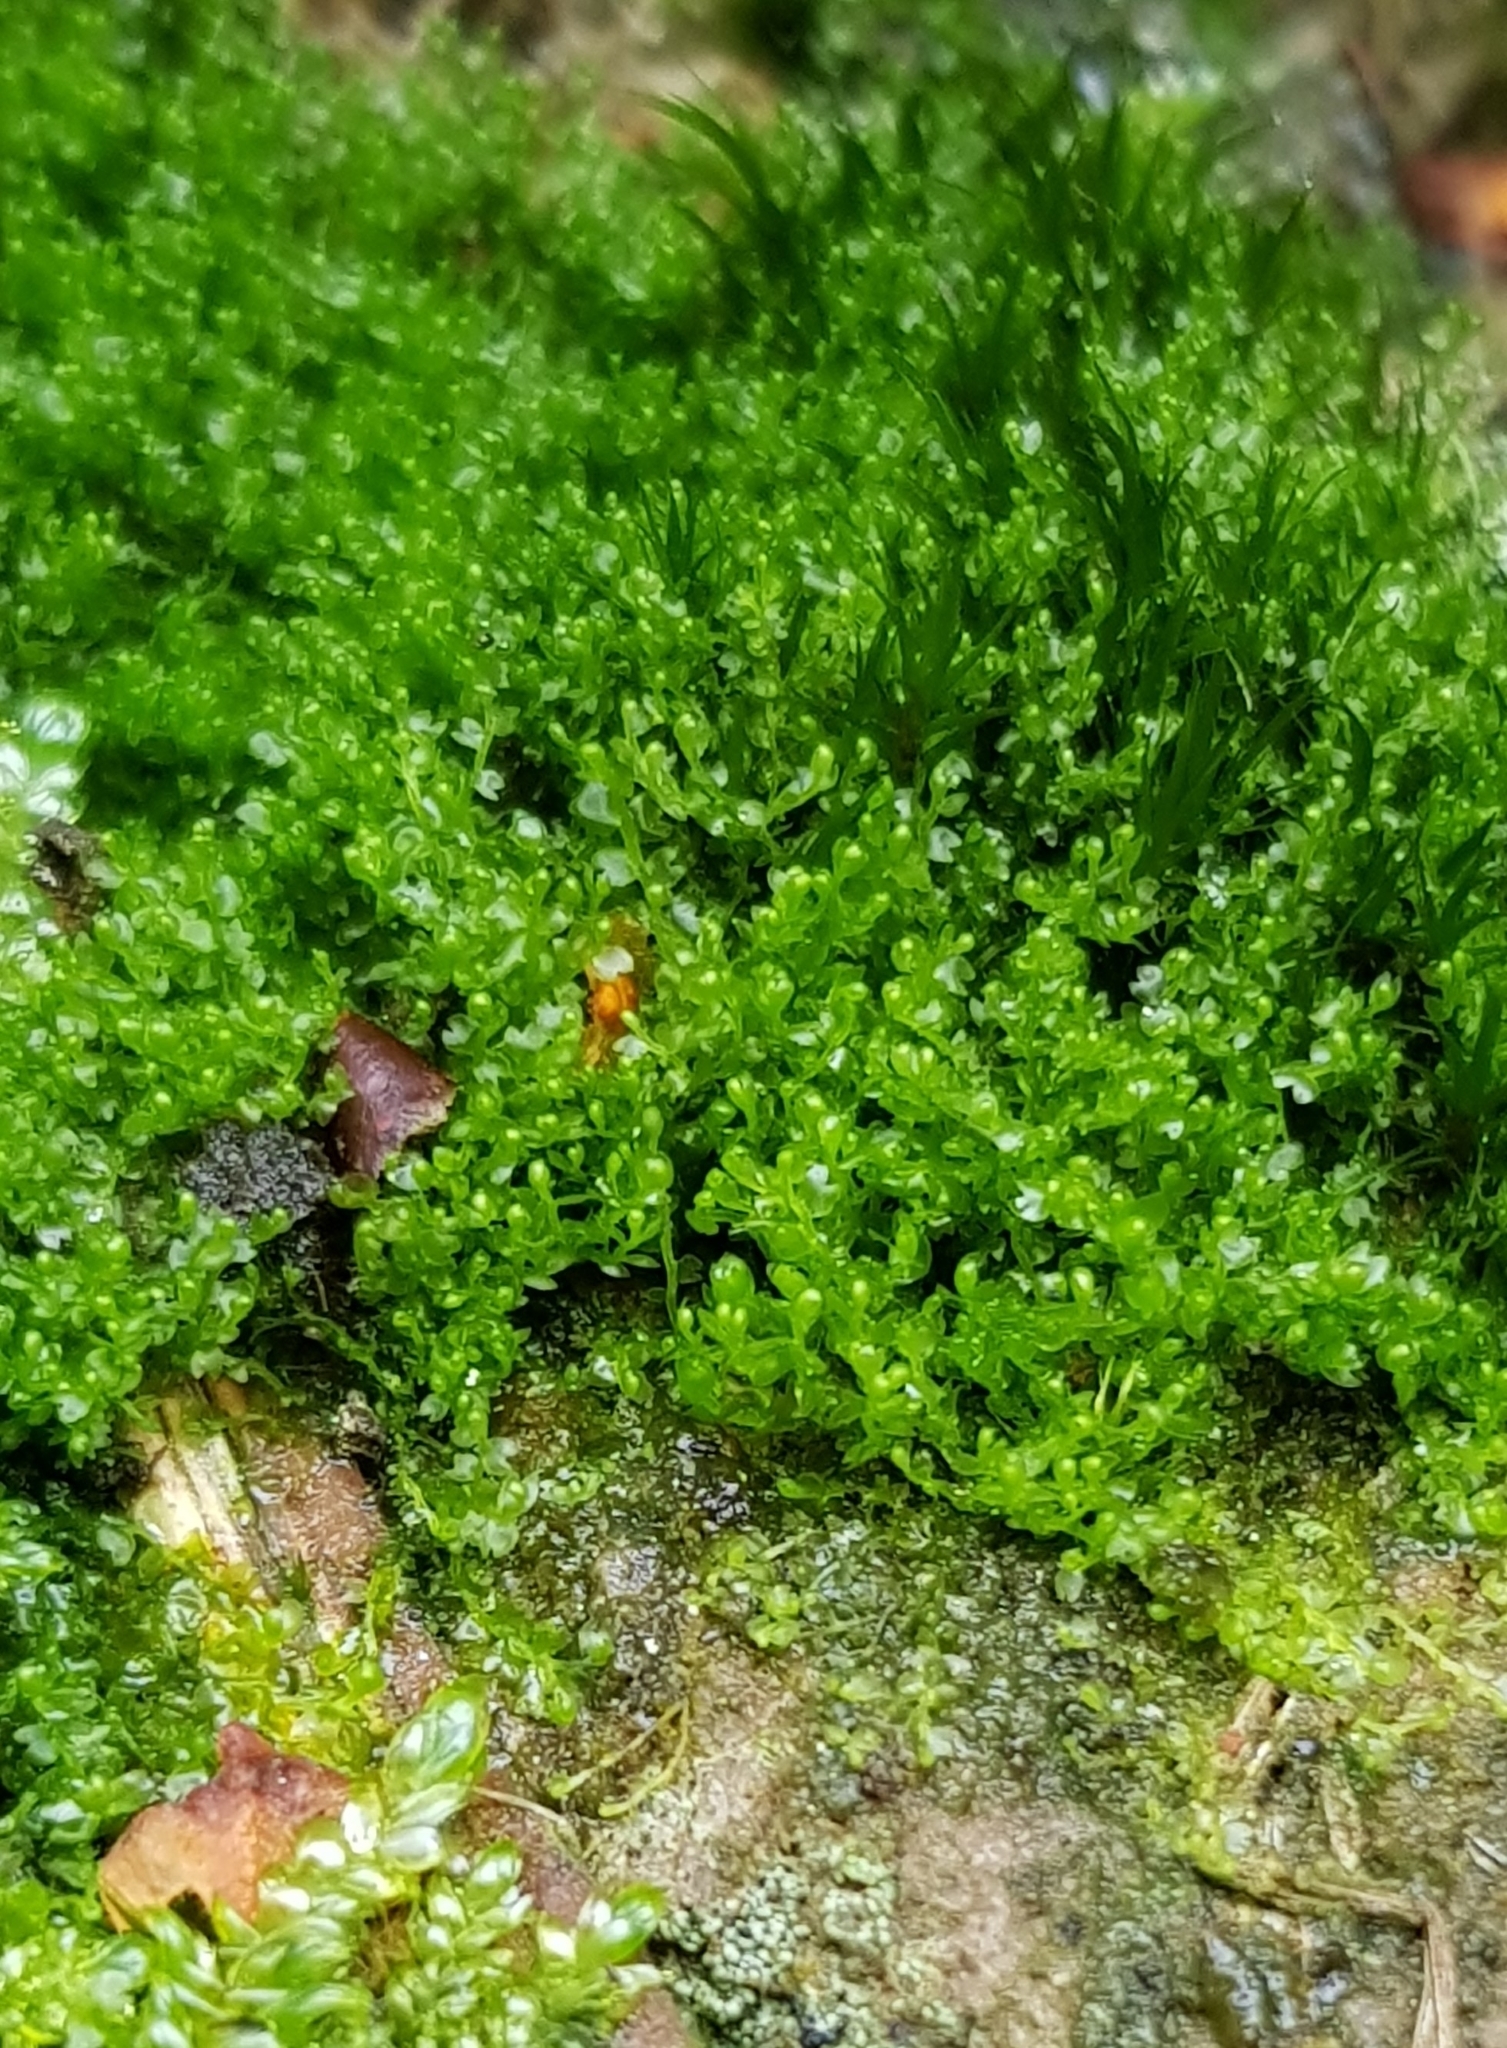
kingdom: Plantae
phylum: Marchantiophyta
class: Jungermanniopsida
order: Jungermanniales
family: Anastrophyllaceae
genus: Gymnocolea
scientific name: Gymnocolea inflata
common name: Inflated notchwort
